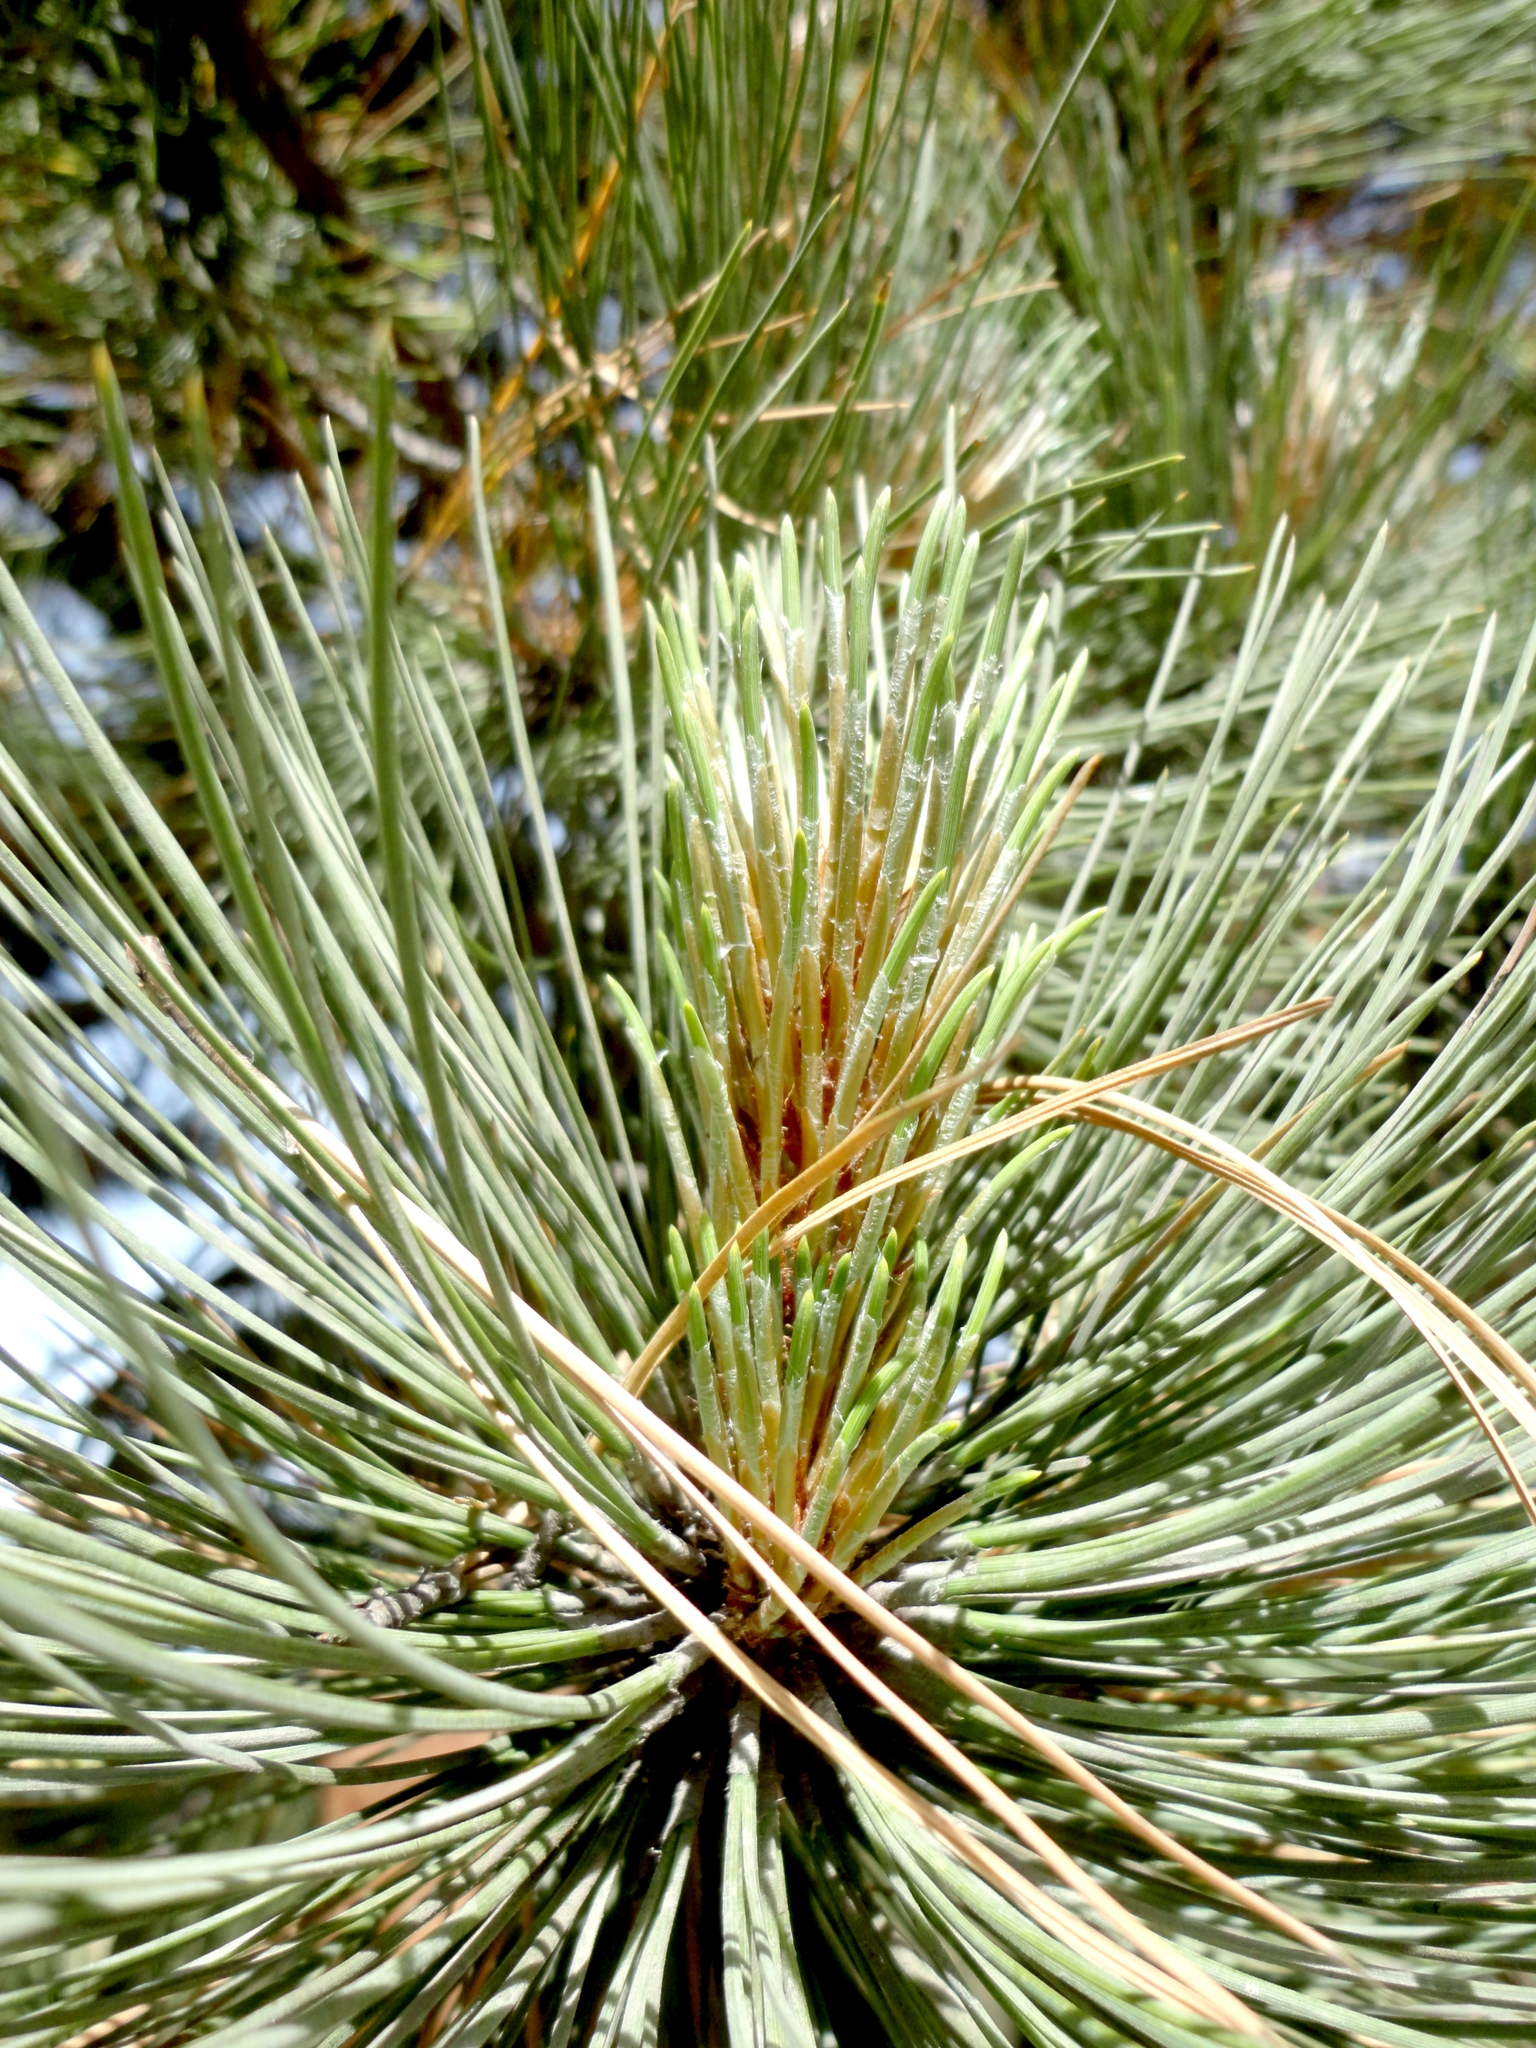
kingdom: Plantae
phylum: Tracheophyta
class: Pinopsida
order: Pinales
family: Pinaceae
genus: Pinus
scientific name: Pinus hartwegii
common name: Hartweg's pine
